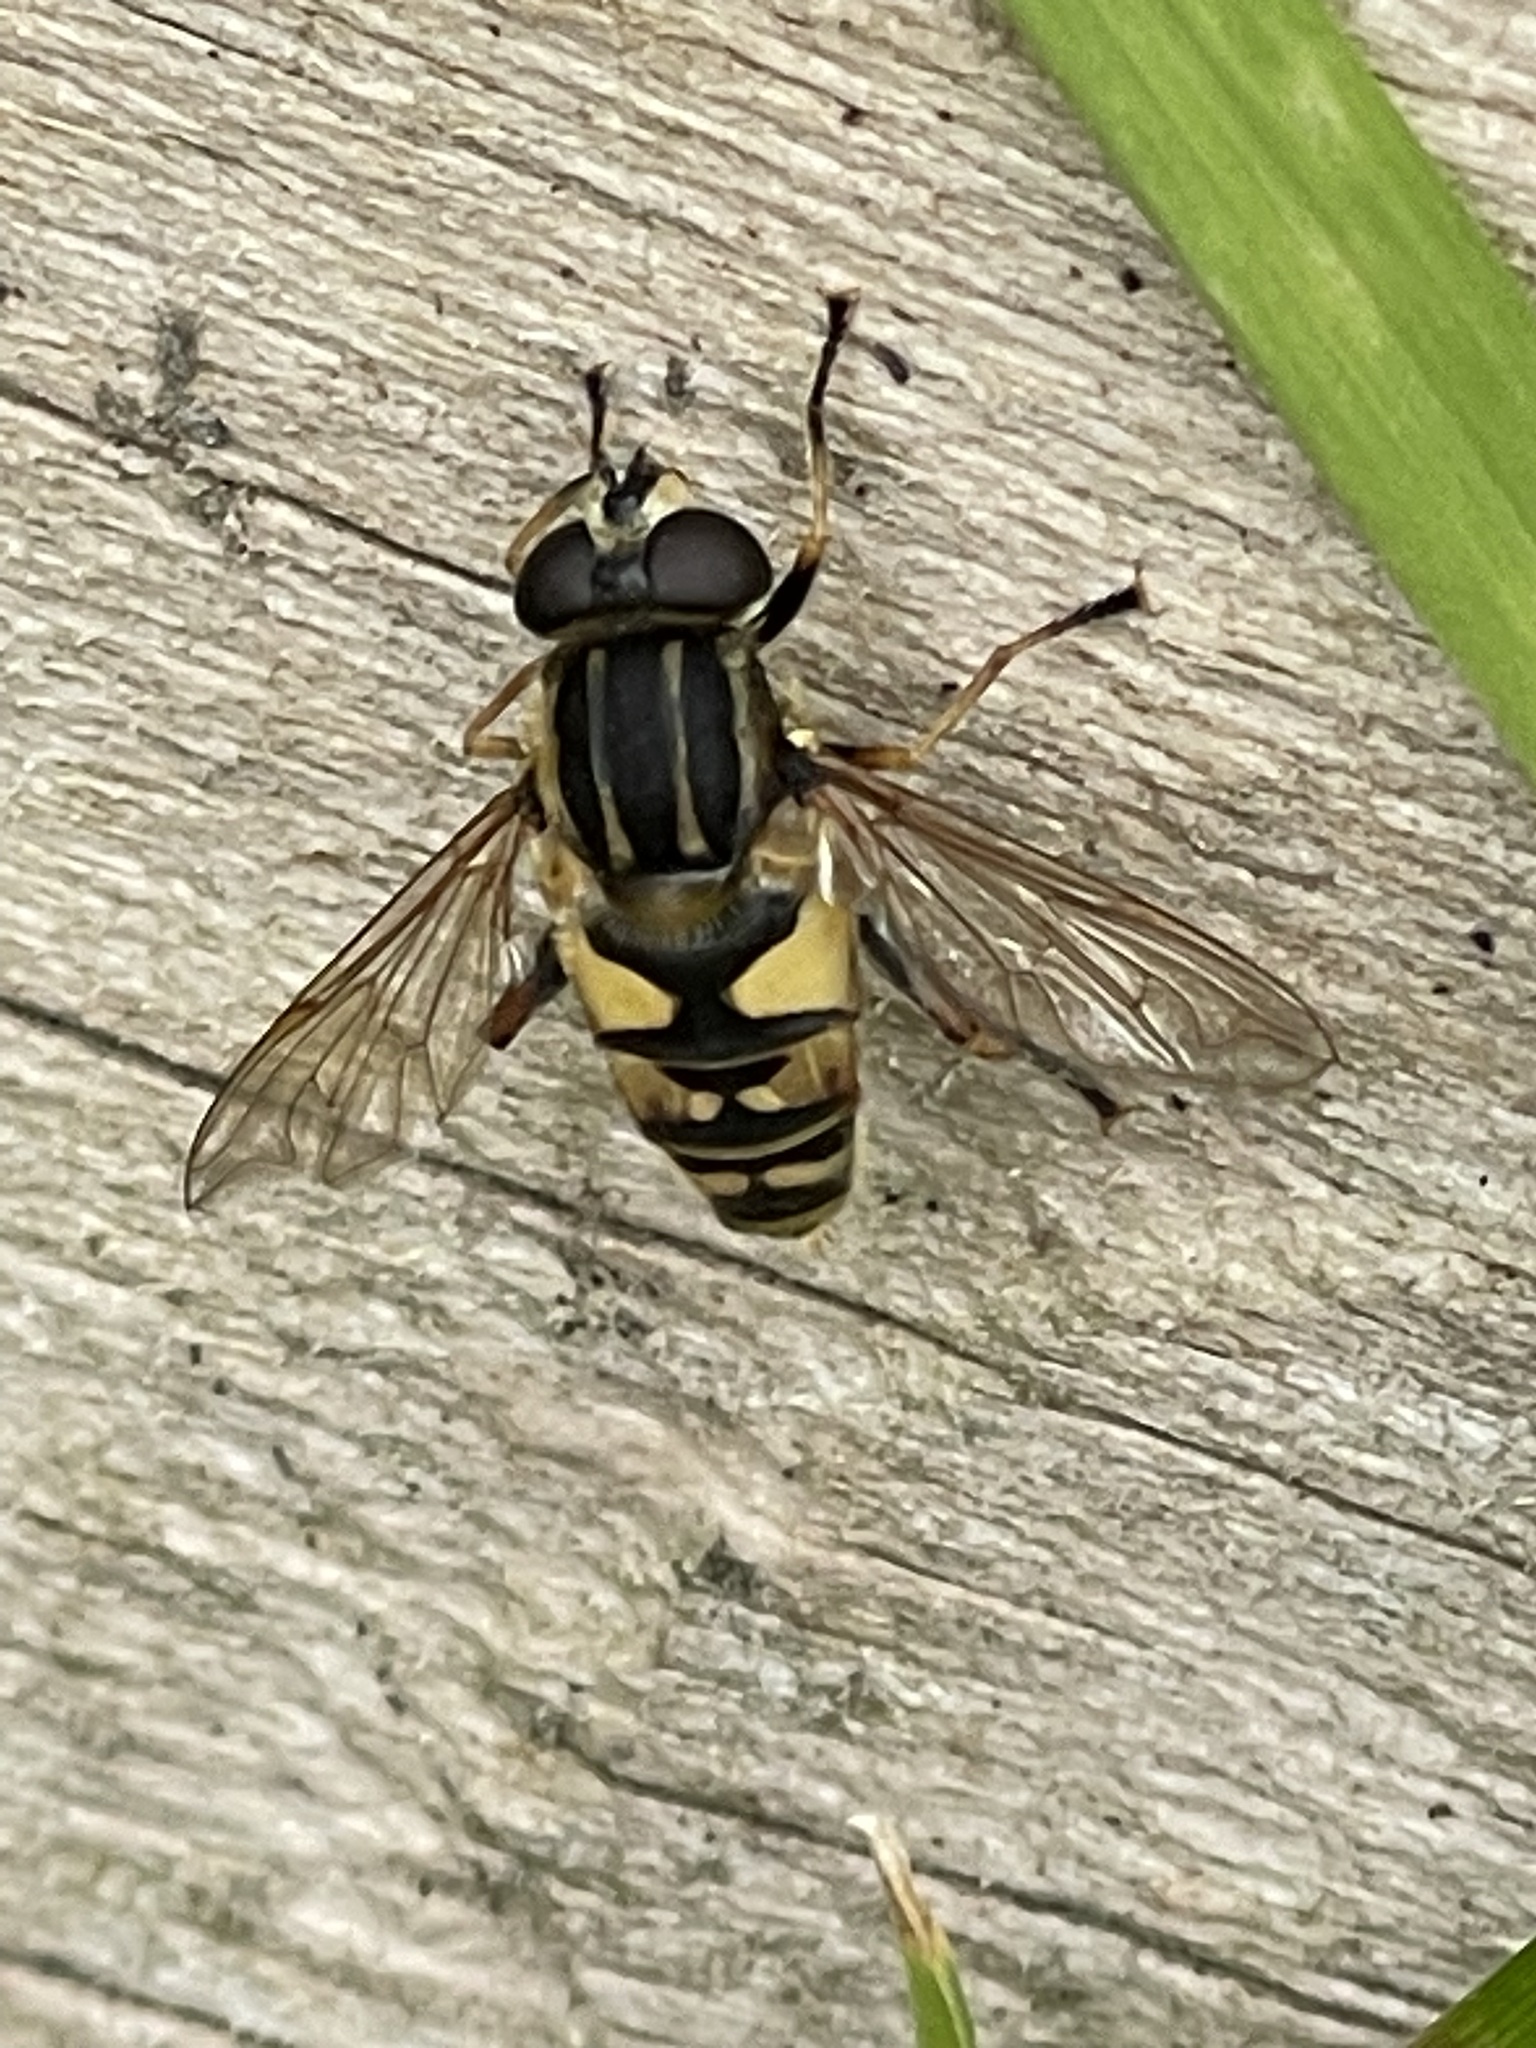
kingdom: Animalia
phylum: Arthropoda
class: Insecta
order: Diptera
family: Syrphidae
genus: Helophilus
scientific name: Helophilus pendulus
